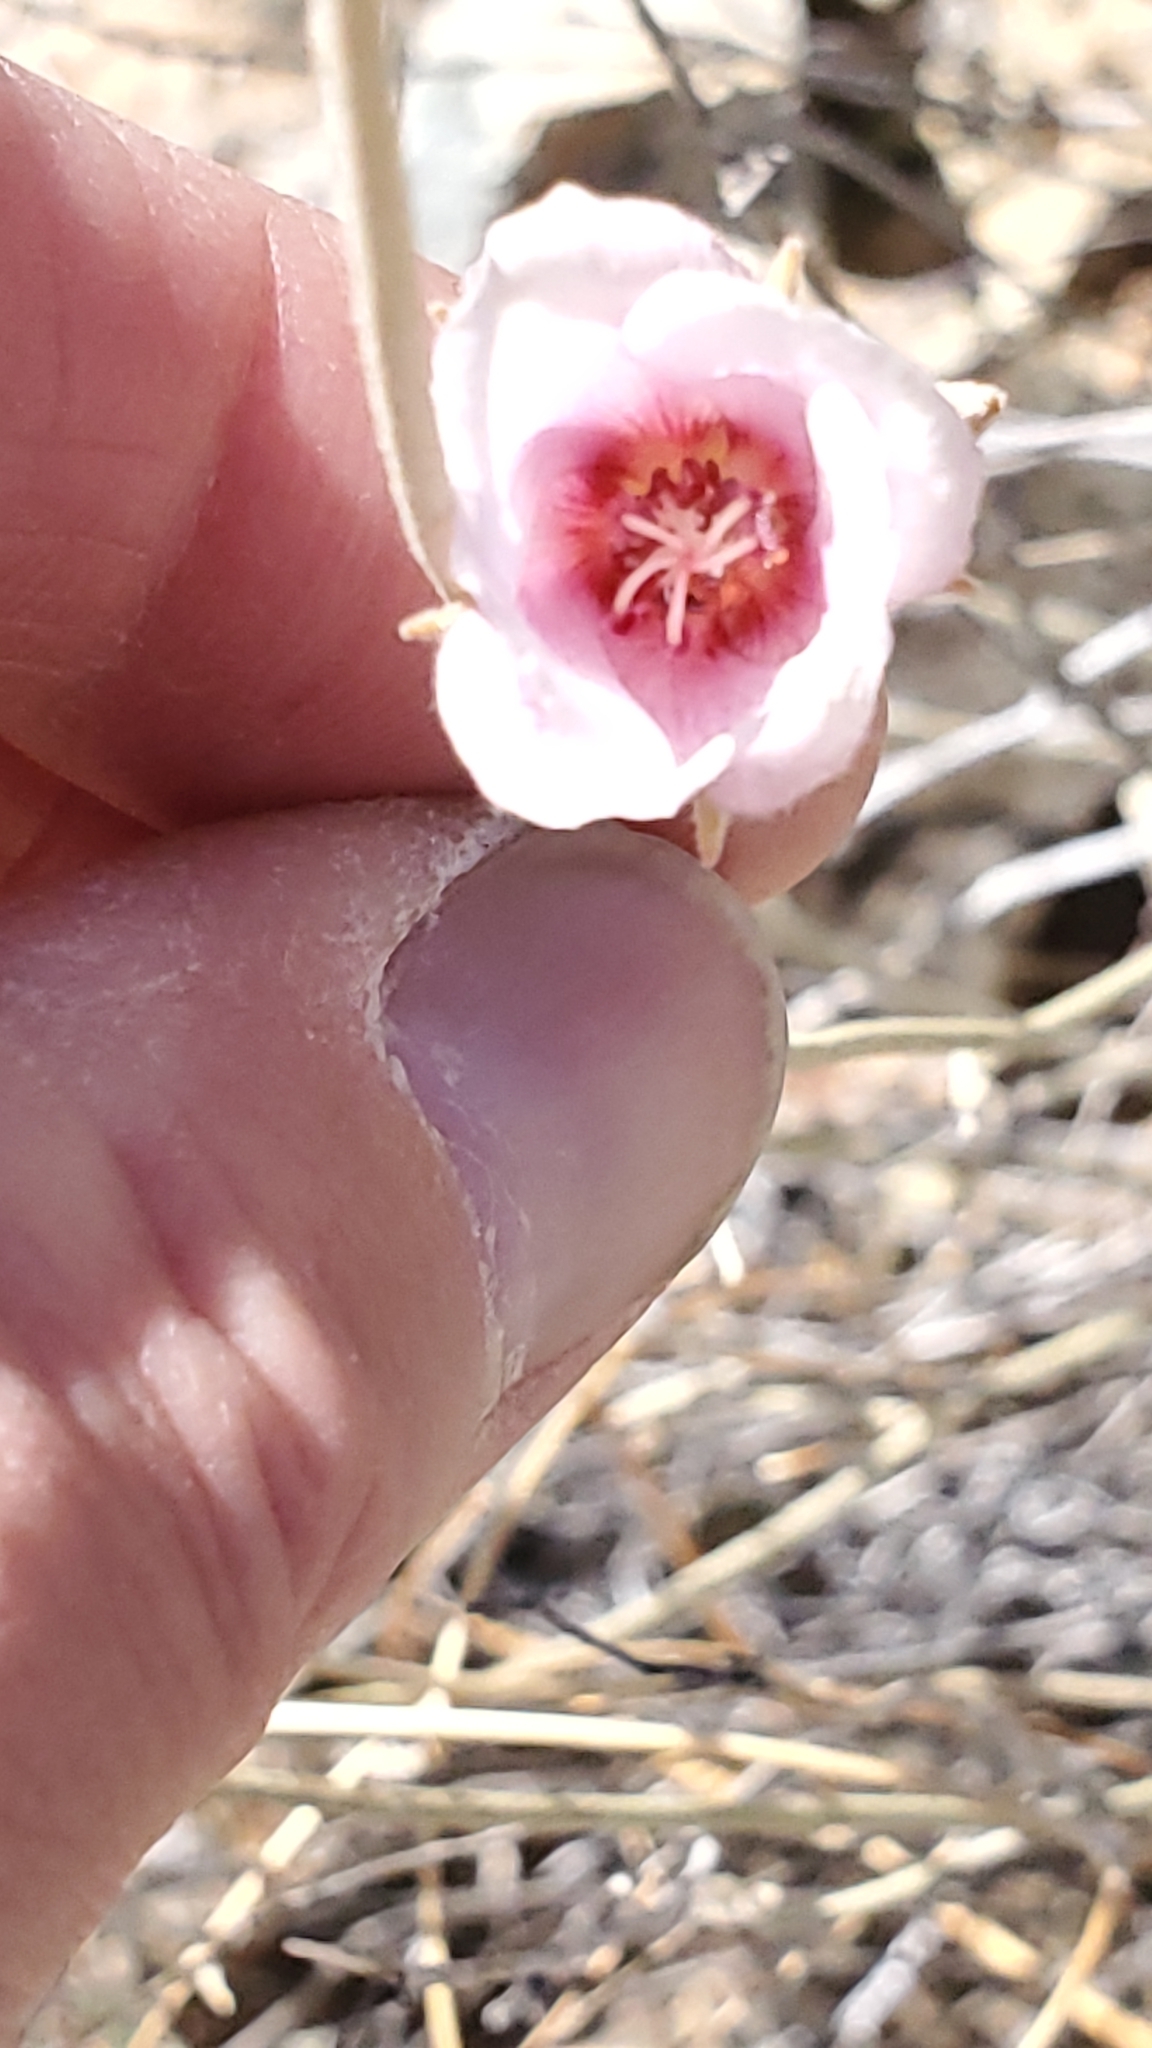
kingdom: Plantae
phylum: Tracheophyta
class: Magnoliopsida
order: Malvales
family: Malvaceae
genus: Hibiscus
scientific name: Hibiscus denudatus
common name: Paleface
